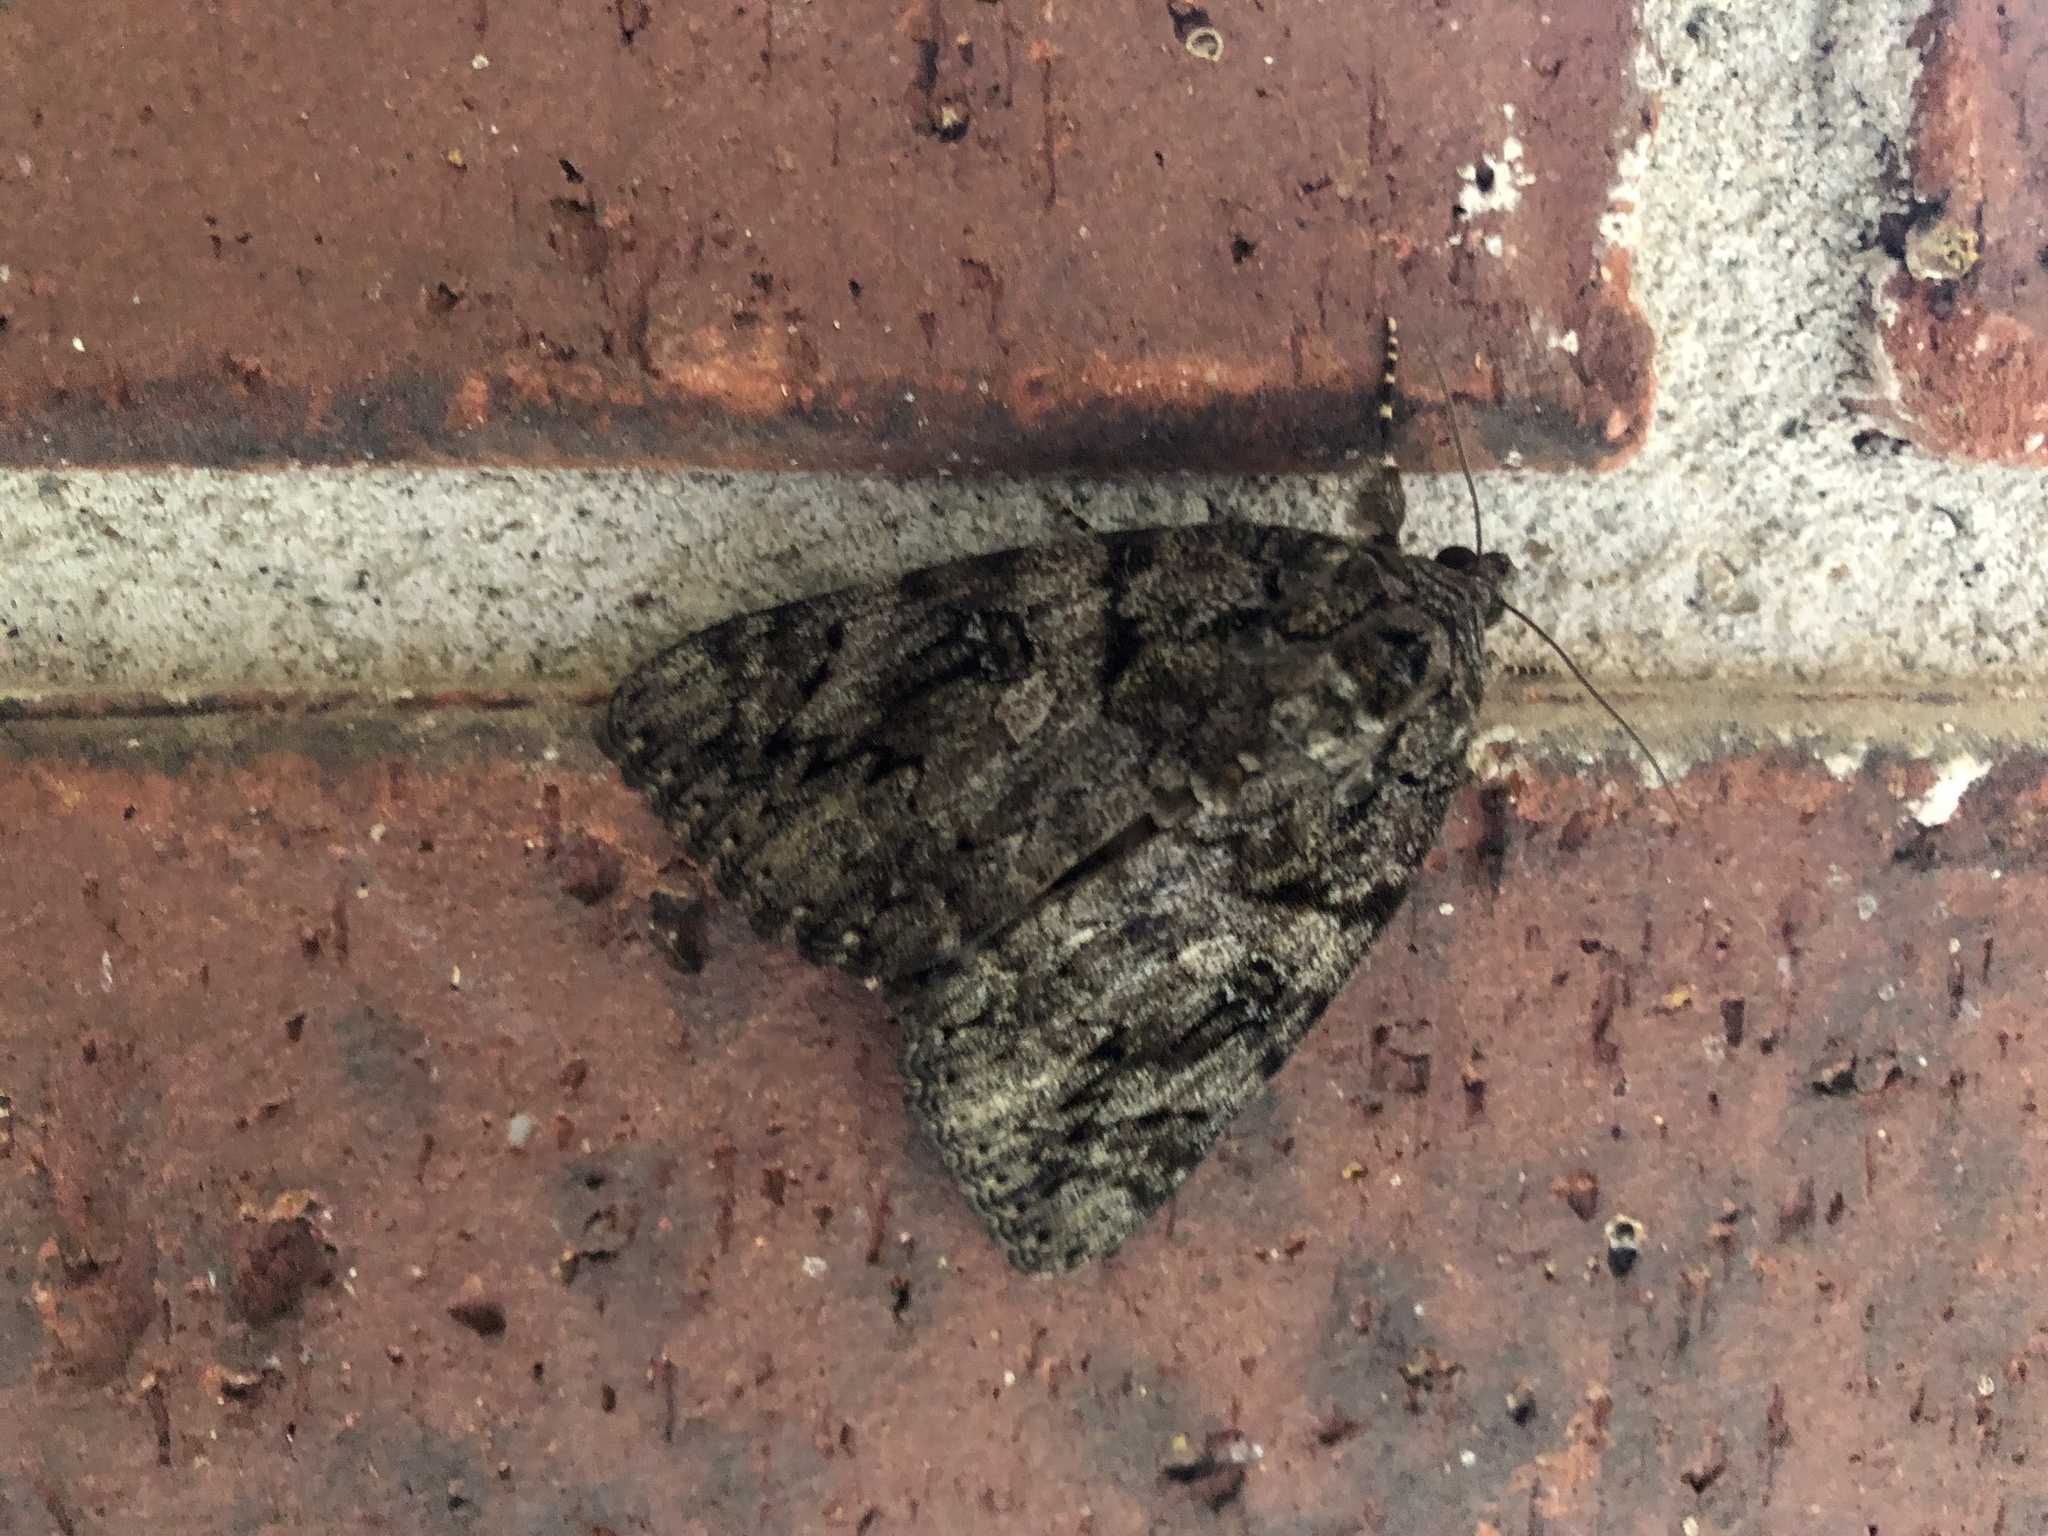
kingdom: Animalia
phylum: Arthropoda
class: Insecta
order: Lepidoptera
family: Erebidae
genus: Catocala
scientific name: Catocala ilia
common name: Ilia underwing
